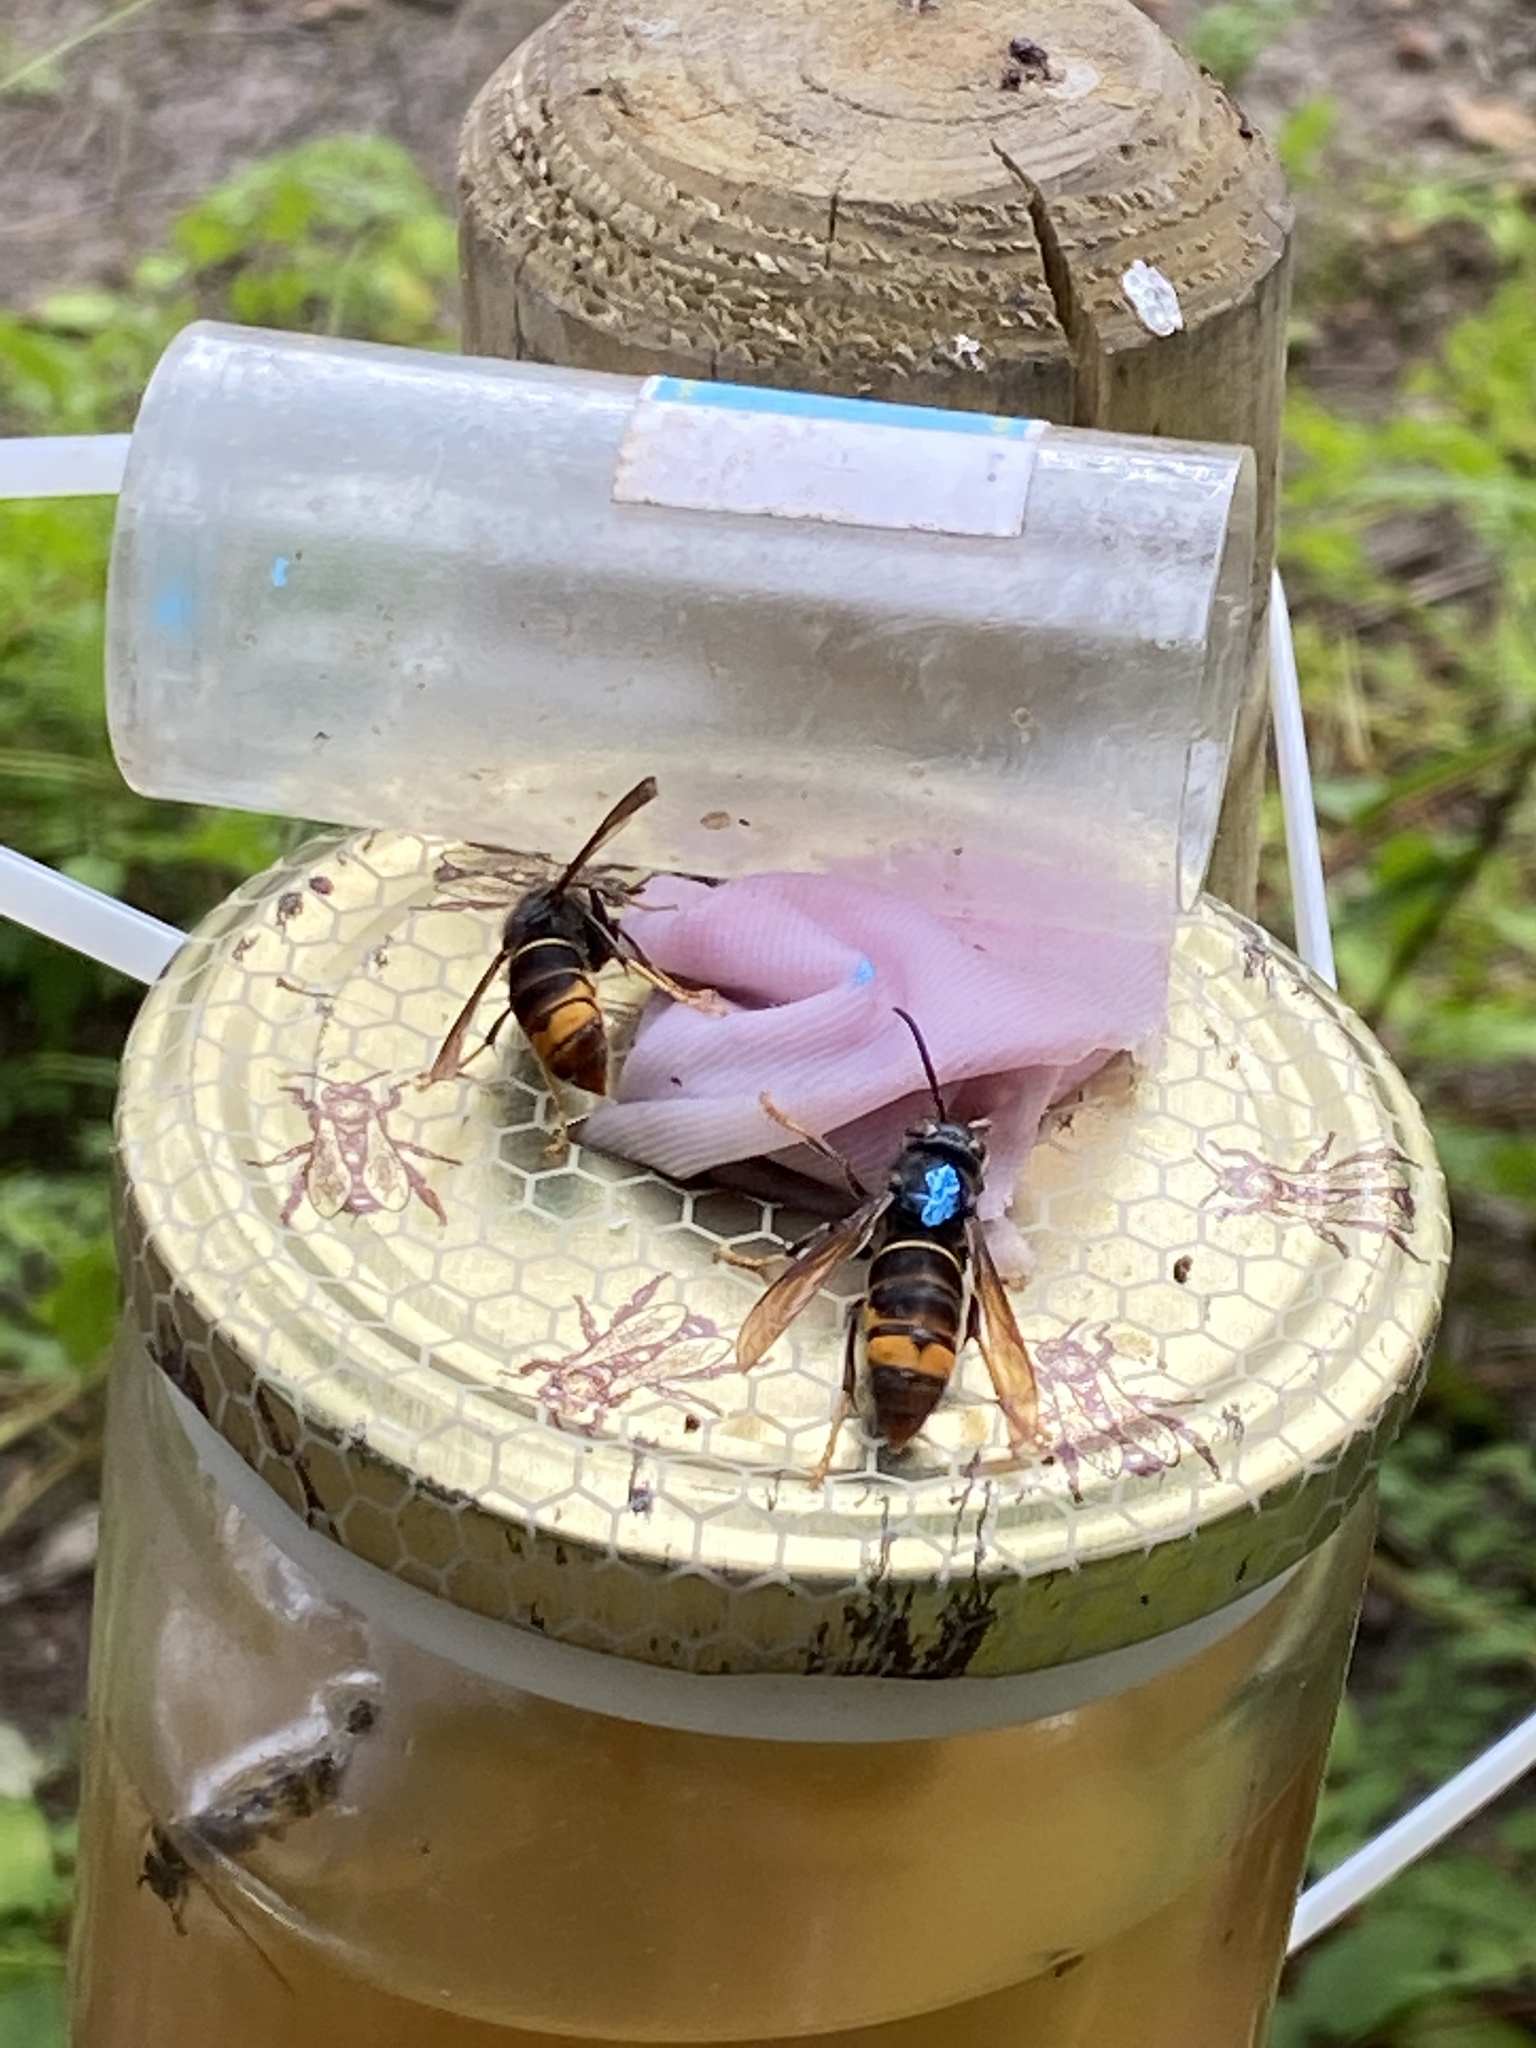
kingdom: Animalia
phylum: Arthropoda
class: Insecta
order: Hymenoptera
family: Vespidae
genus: Vespa
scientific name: Vespa velutina
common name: Asian hornet
